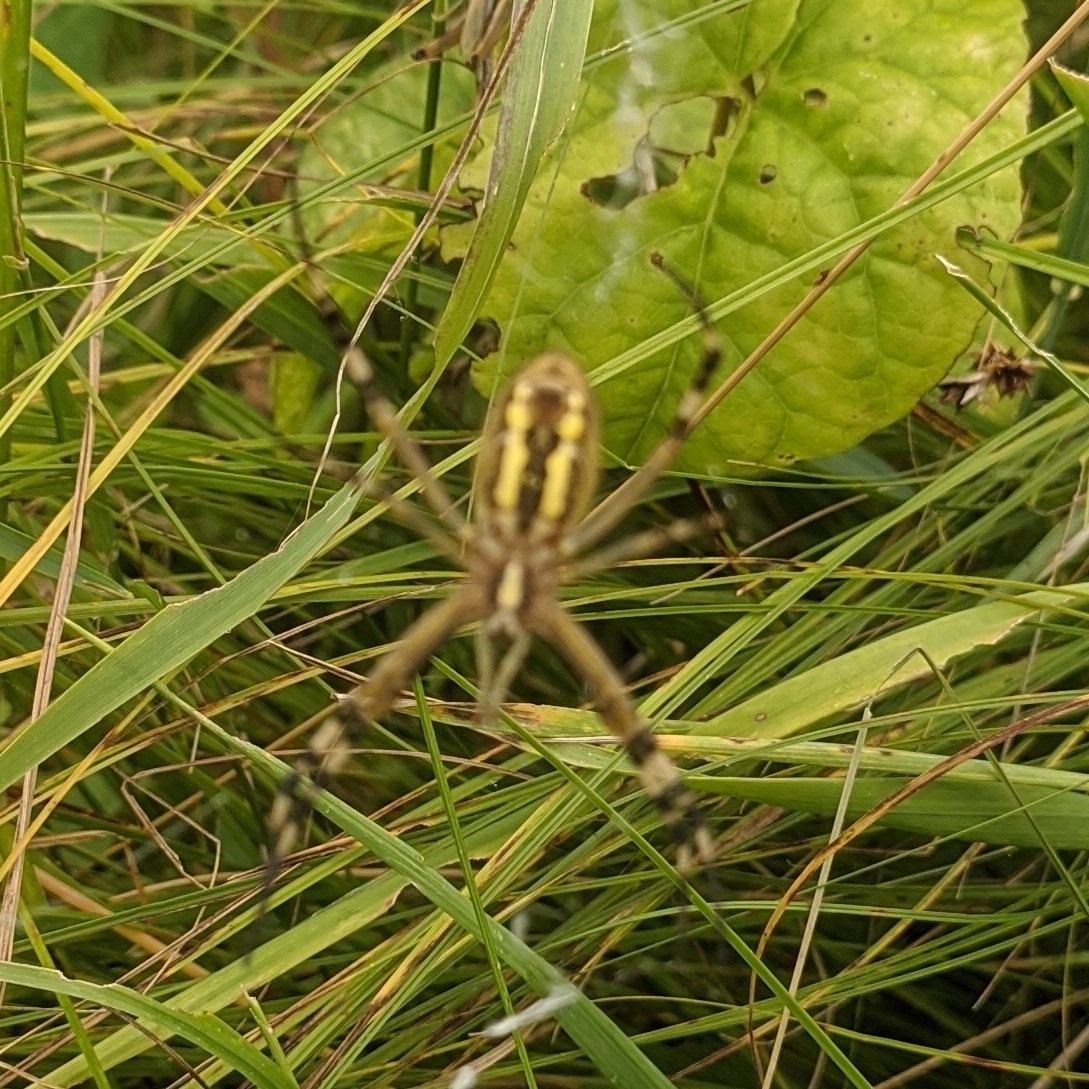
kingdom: Animalia
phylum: Arthropoda
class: Arachnida
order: Araneae
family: Araneidae
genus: Argiope
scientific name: Argiope bruennichi
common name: Wasp spider
